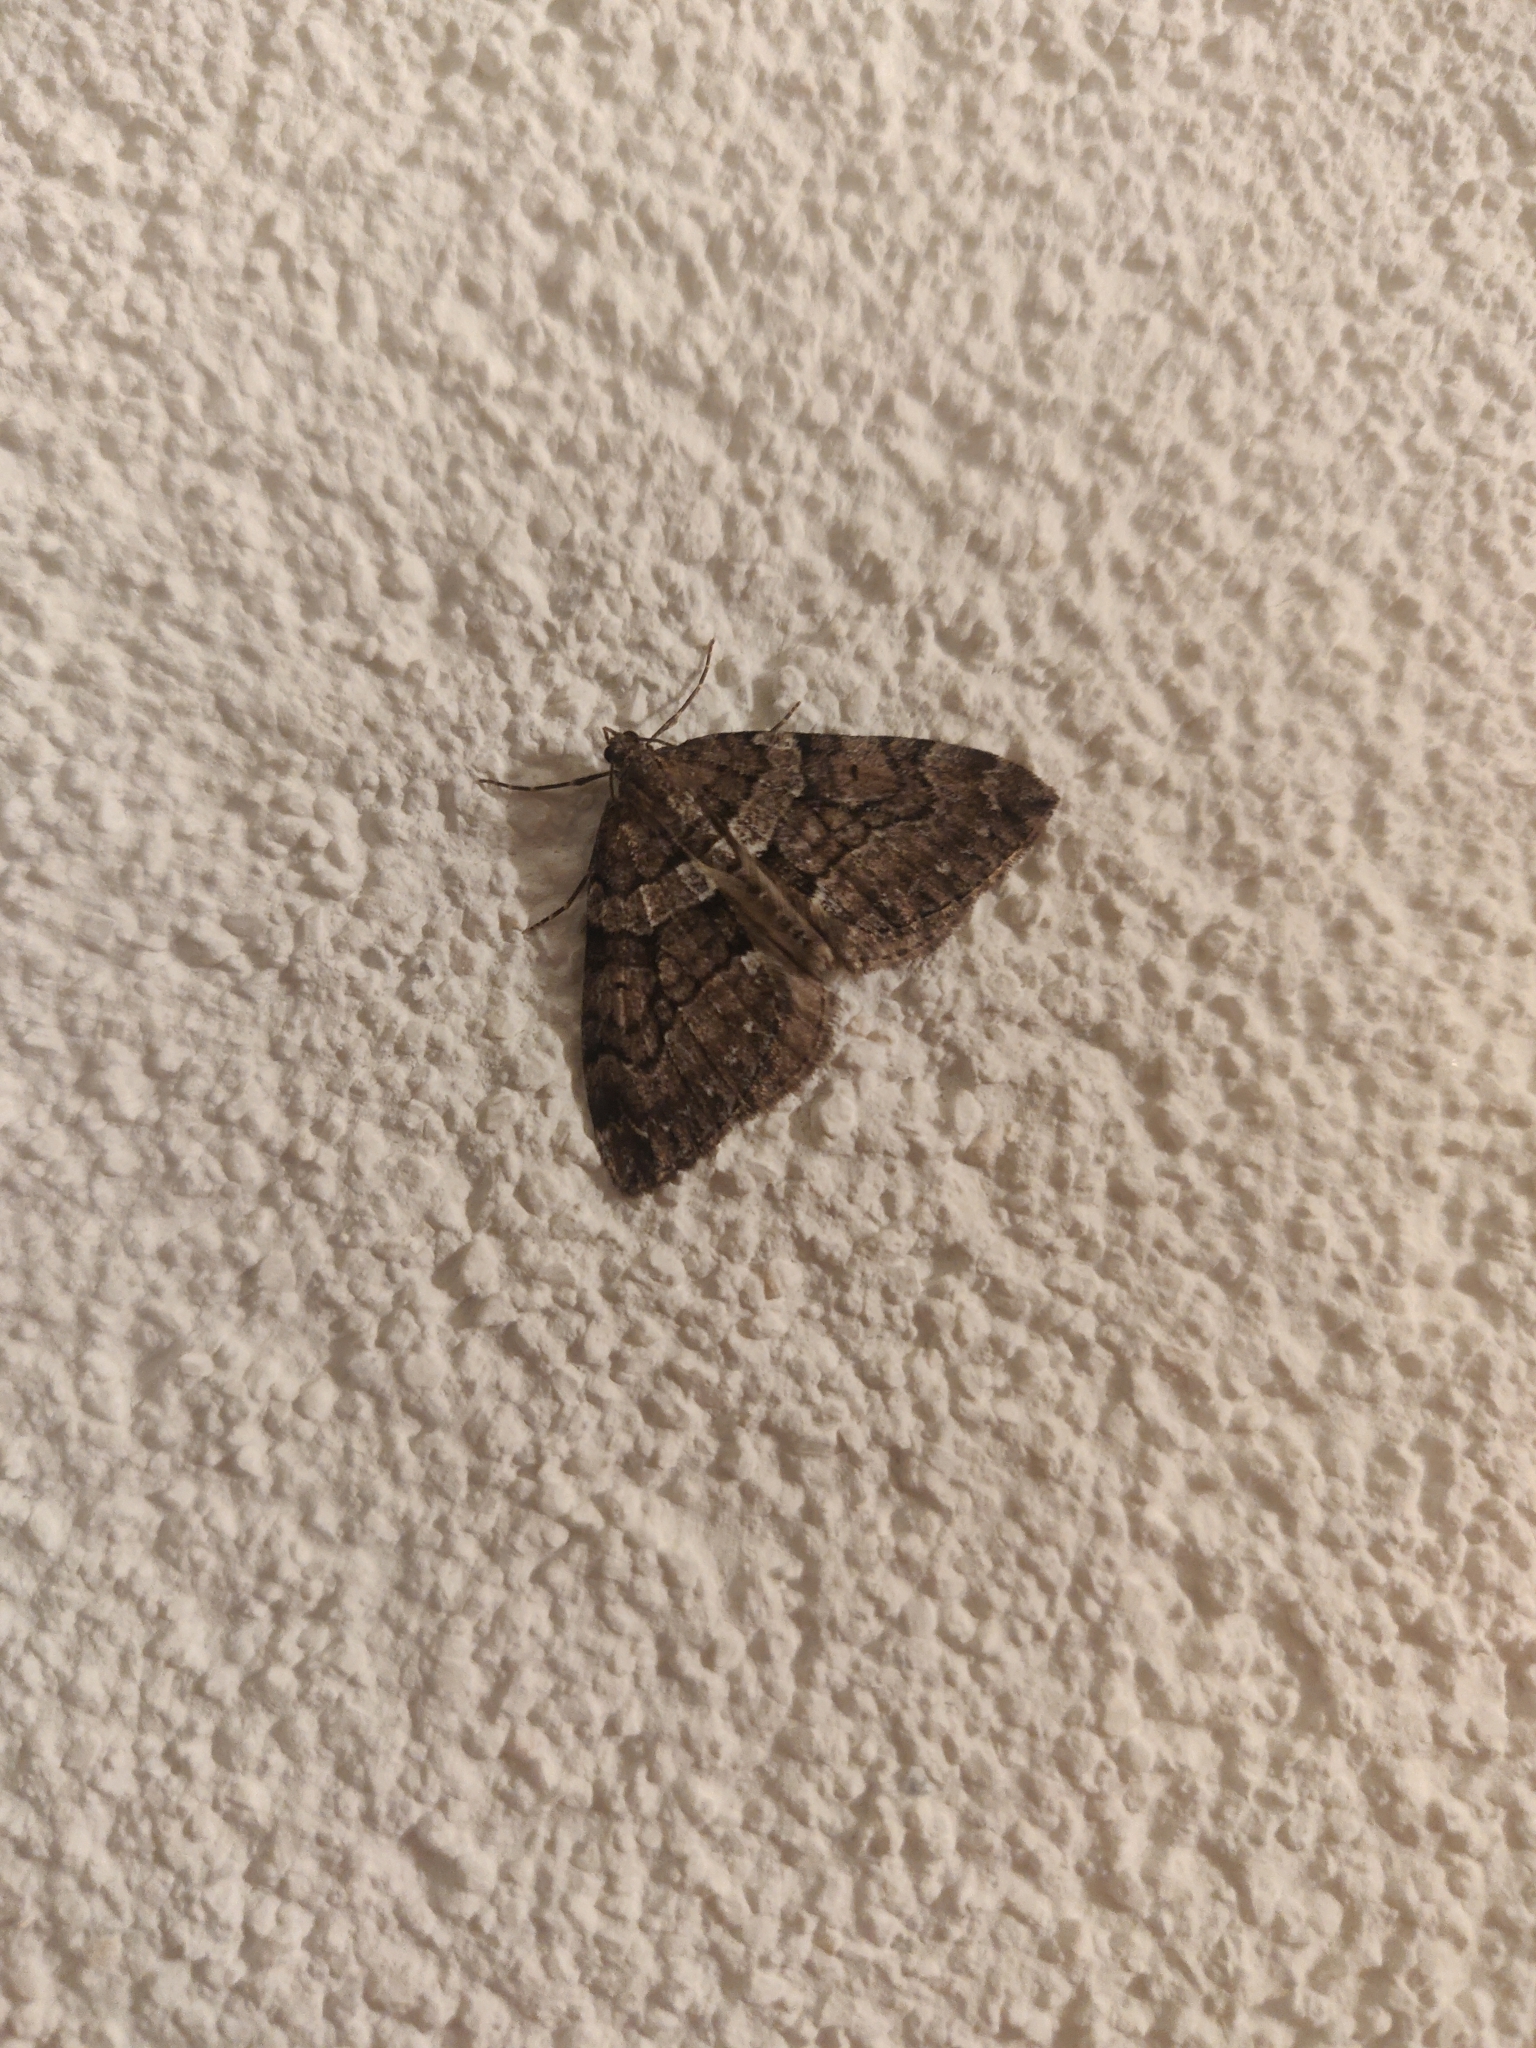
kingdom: Animalia
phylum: Arthropoda
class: Insecta
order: Lepidoptera
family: Geometridae
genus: Thera
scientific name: Thera cognata
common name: Chestnut-coloured carpet
